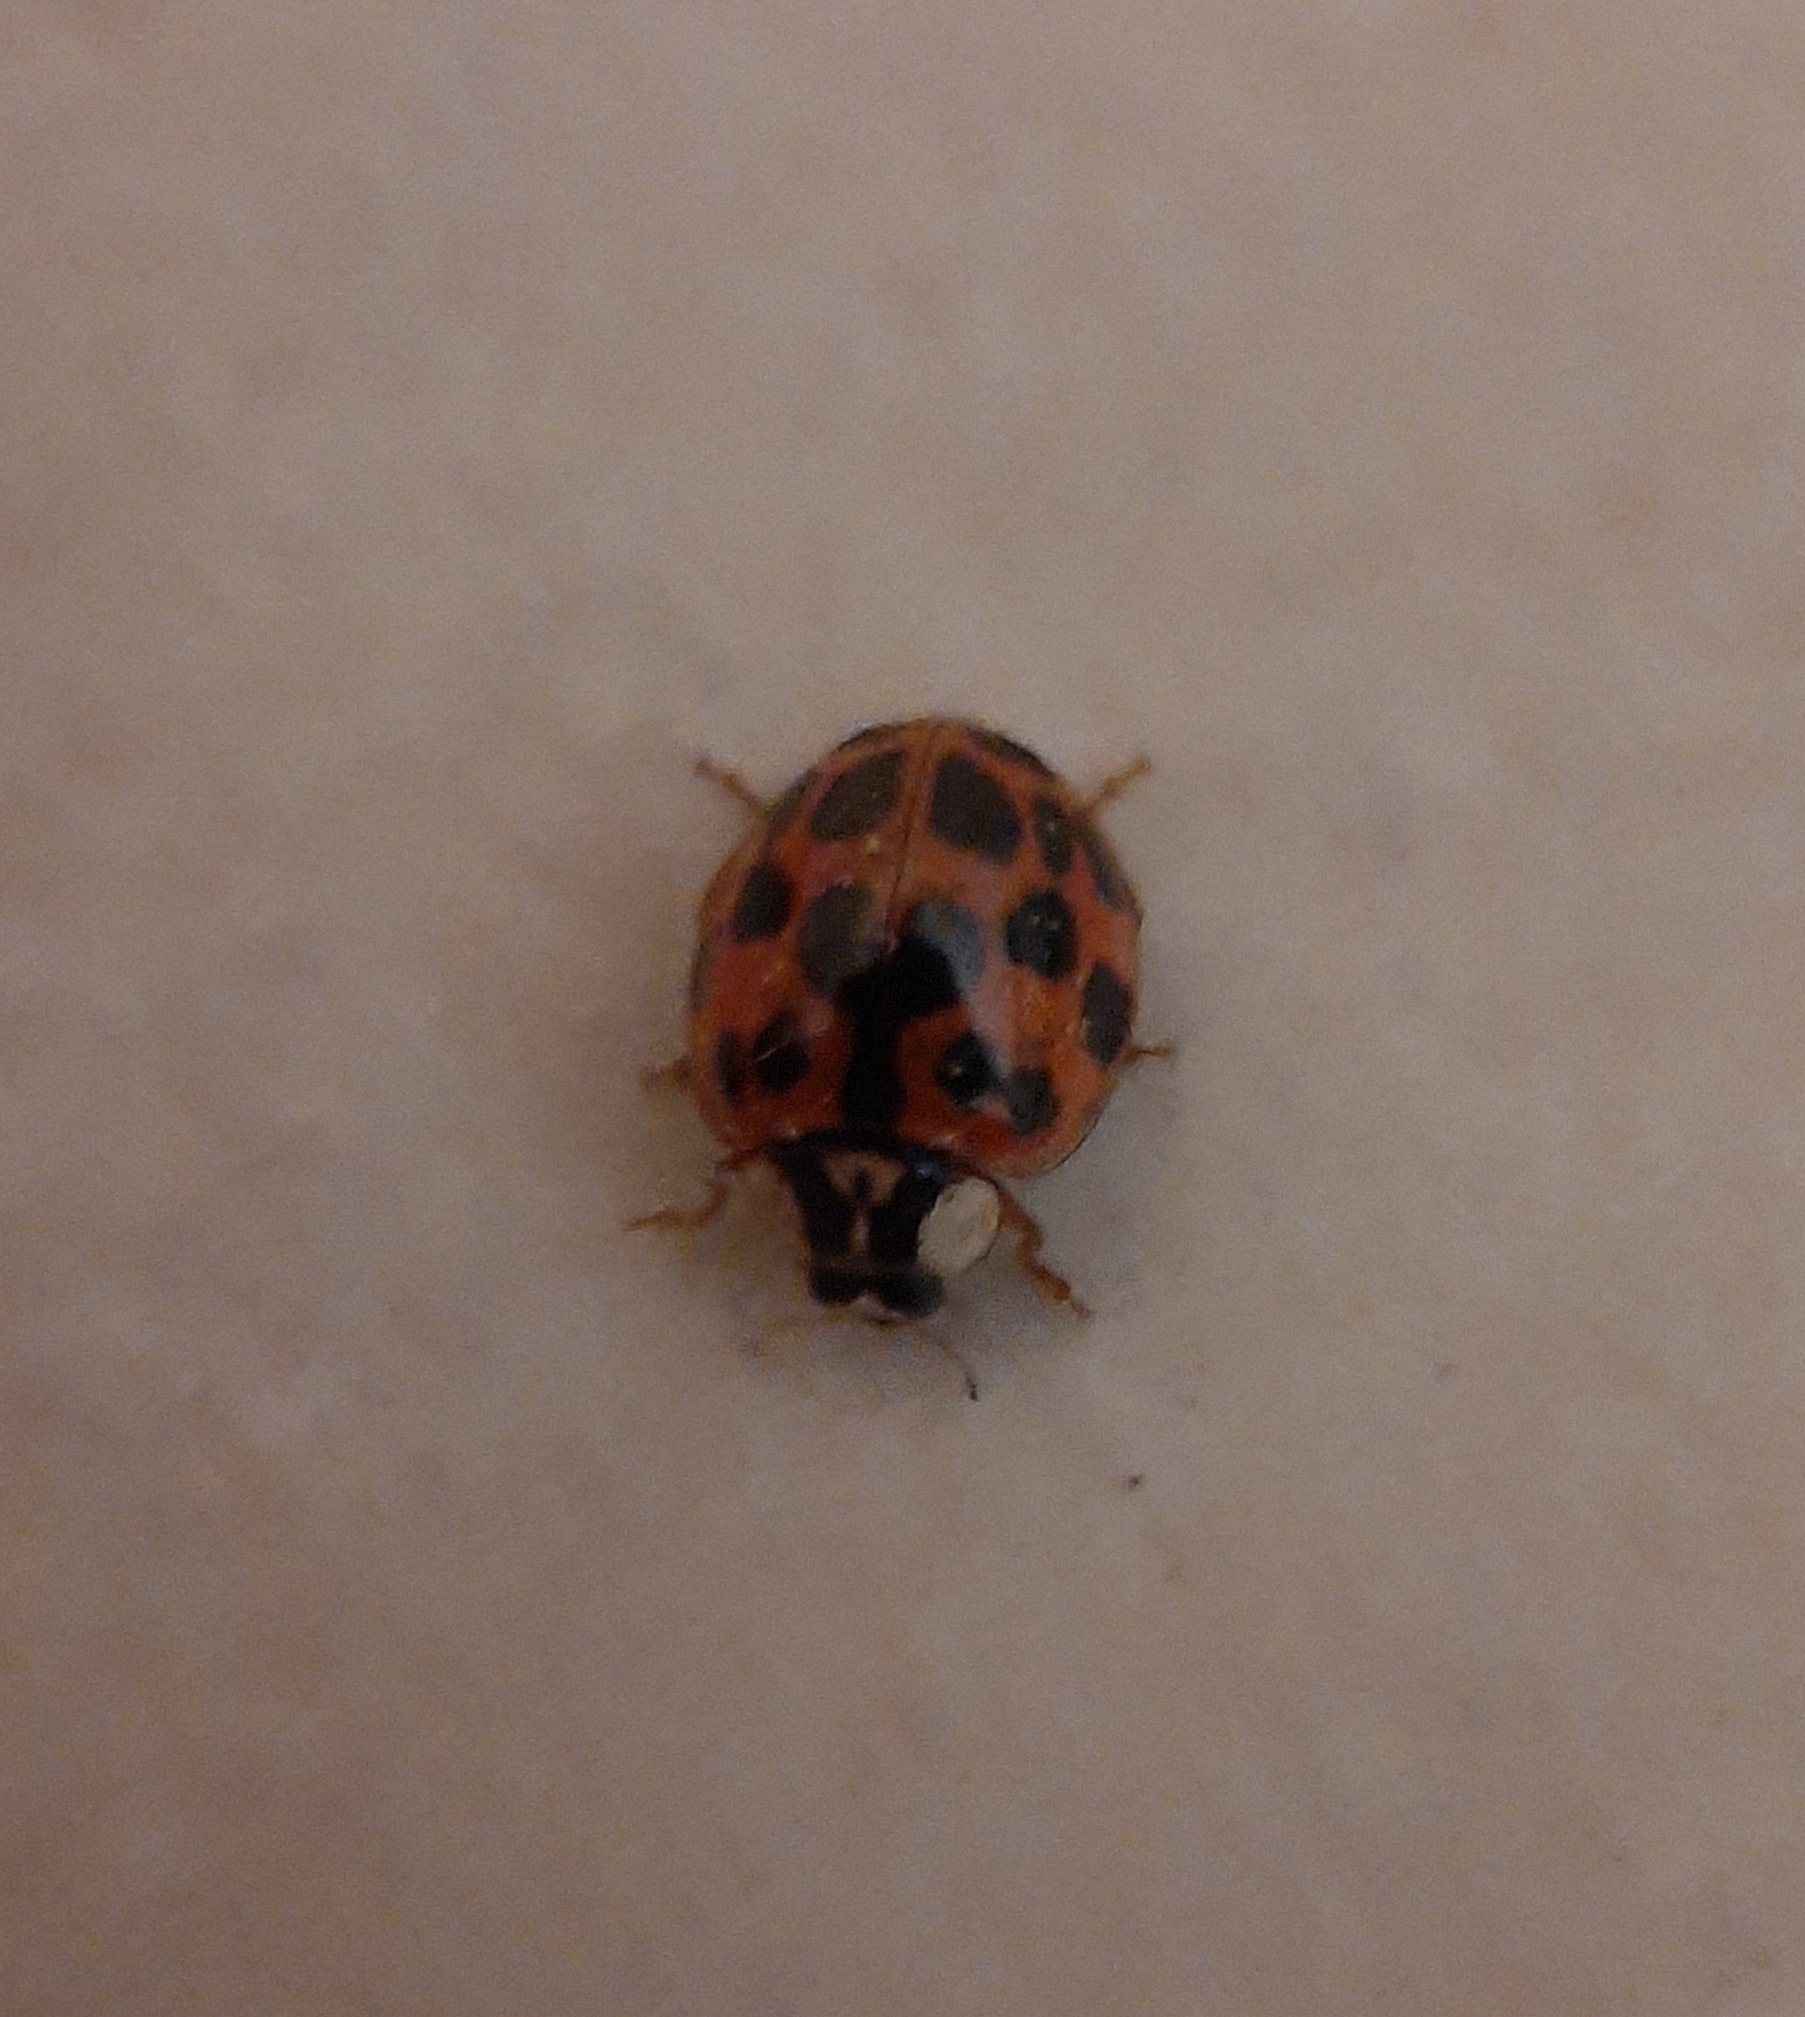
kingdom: Animalia
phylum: Arthropoda
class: Insecta
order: Coleoptera
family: Coccinellidae
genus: Harmonia
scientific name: Harmonia axyridis
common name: Harlequin ladybird
